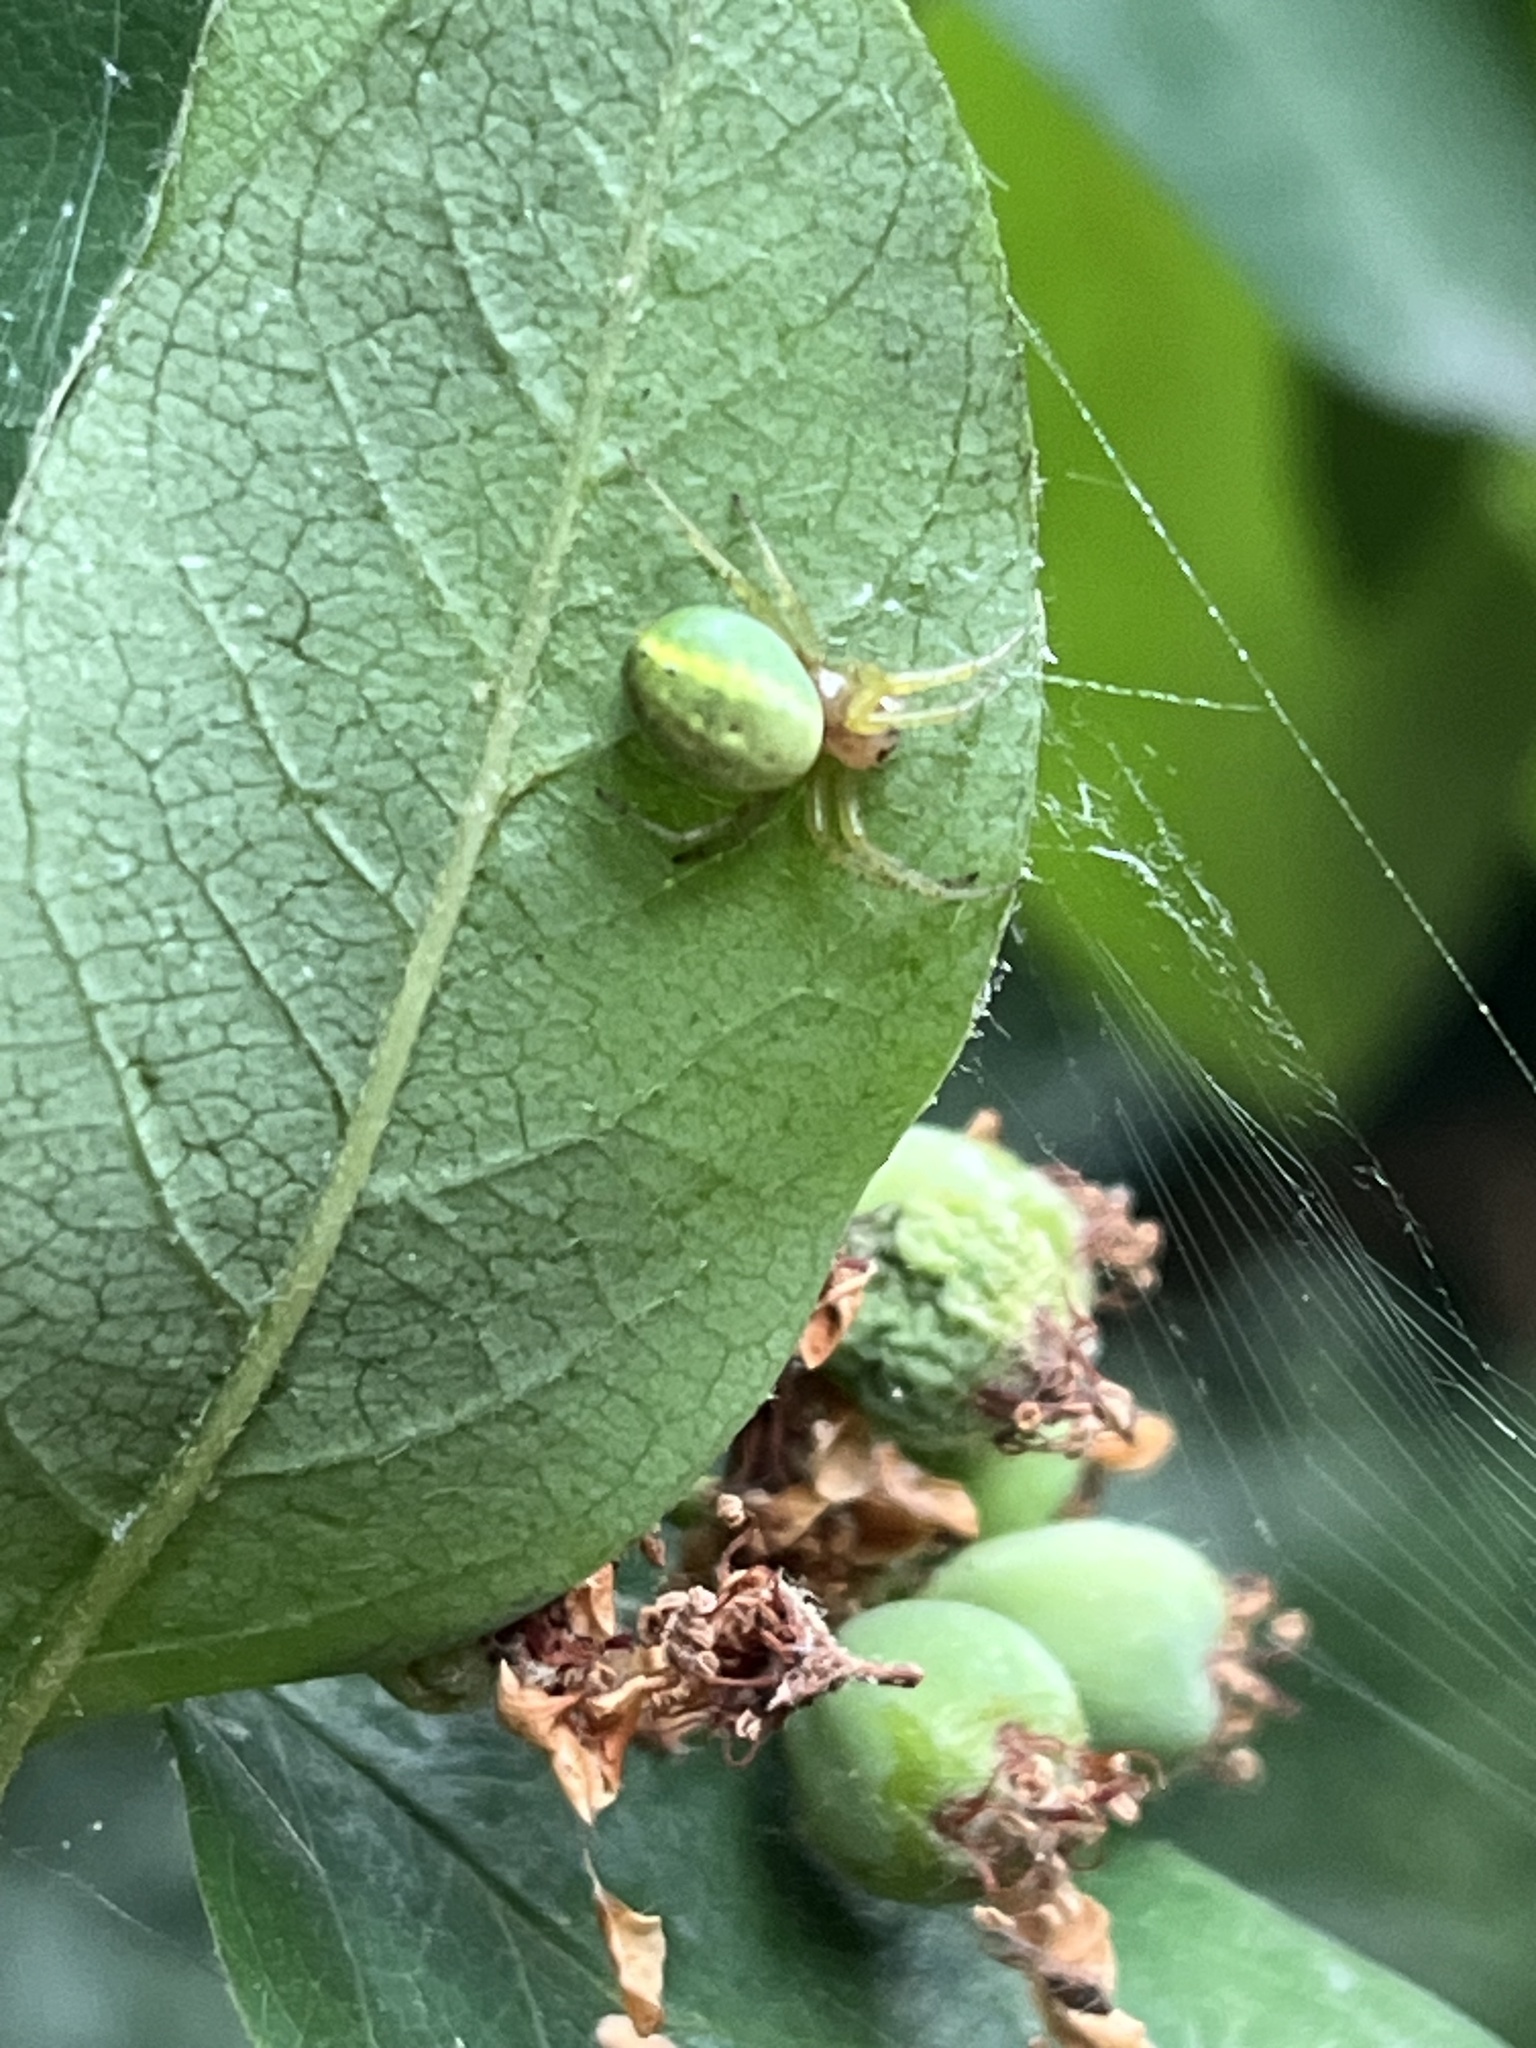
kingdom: Animalia
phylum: Arthropoda
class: Arachnida
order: Araneae
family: Araneidae
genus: Araniella
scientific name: Araniella
